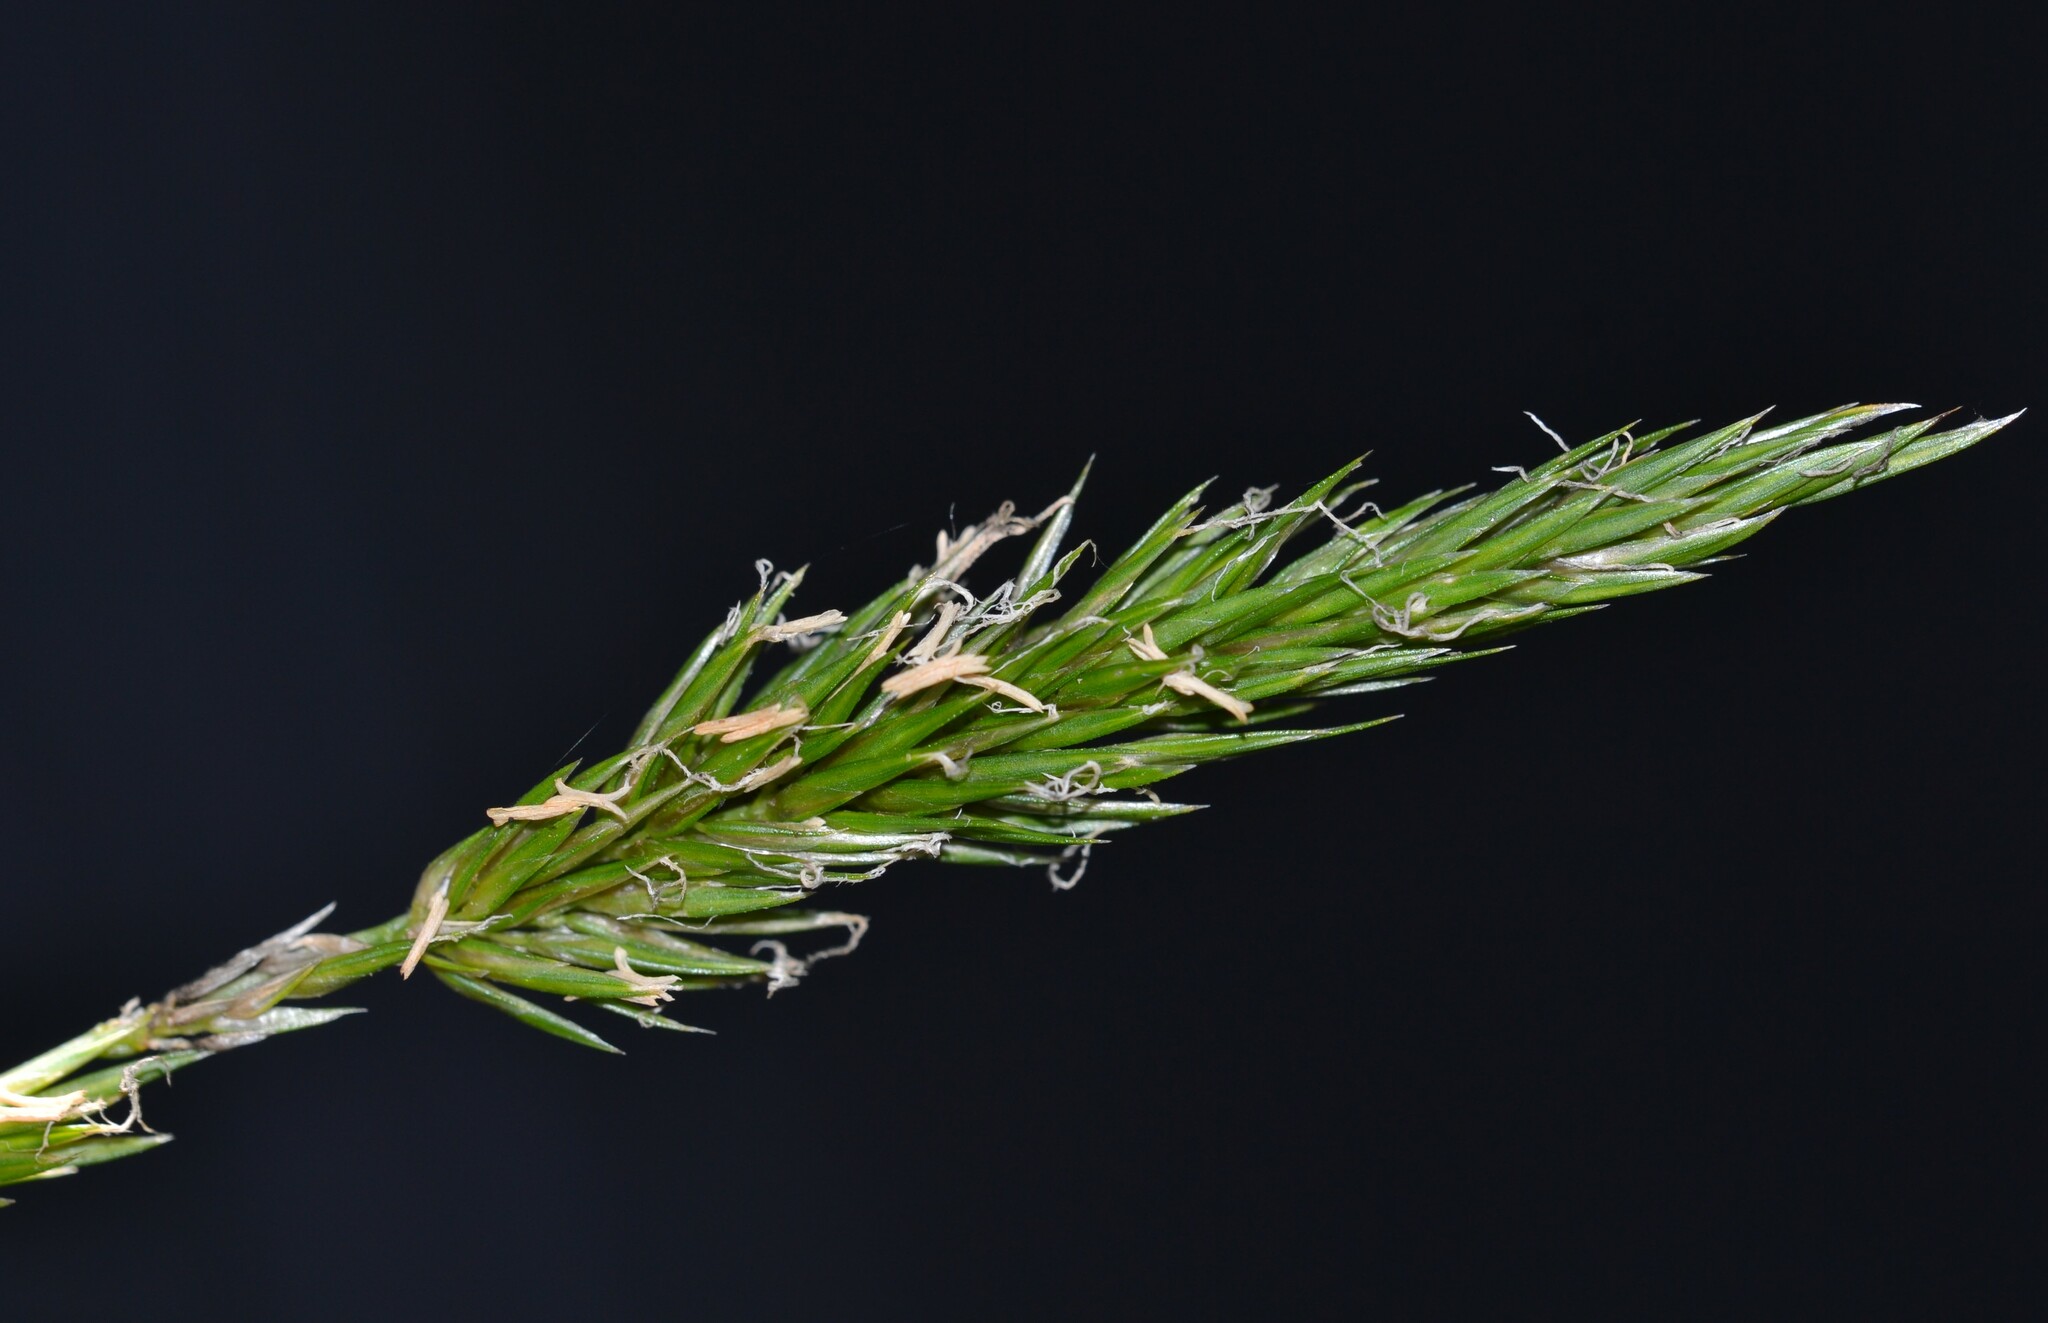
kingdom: Plantae
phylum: Tracheophyta
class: Liliopsida
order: Poales
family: Poaceae
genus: Anthoxanthum
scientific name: Anthoxanthum odoratum
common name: Sweet vernalgrass
